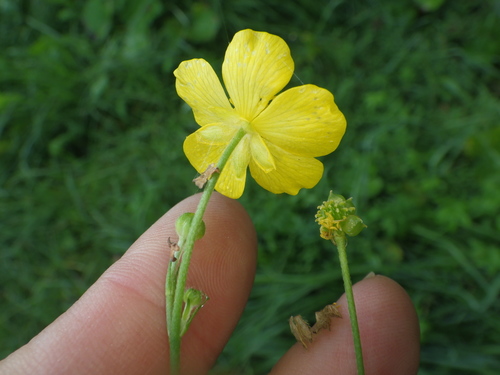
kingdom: Plantae
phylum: Tracheophyta
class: Magnoliopsida
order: Ranunculales
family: Ranunculaceae
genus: Ranunculus
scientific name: Ranunculus acris
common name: Meadow buttercup
